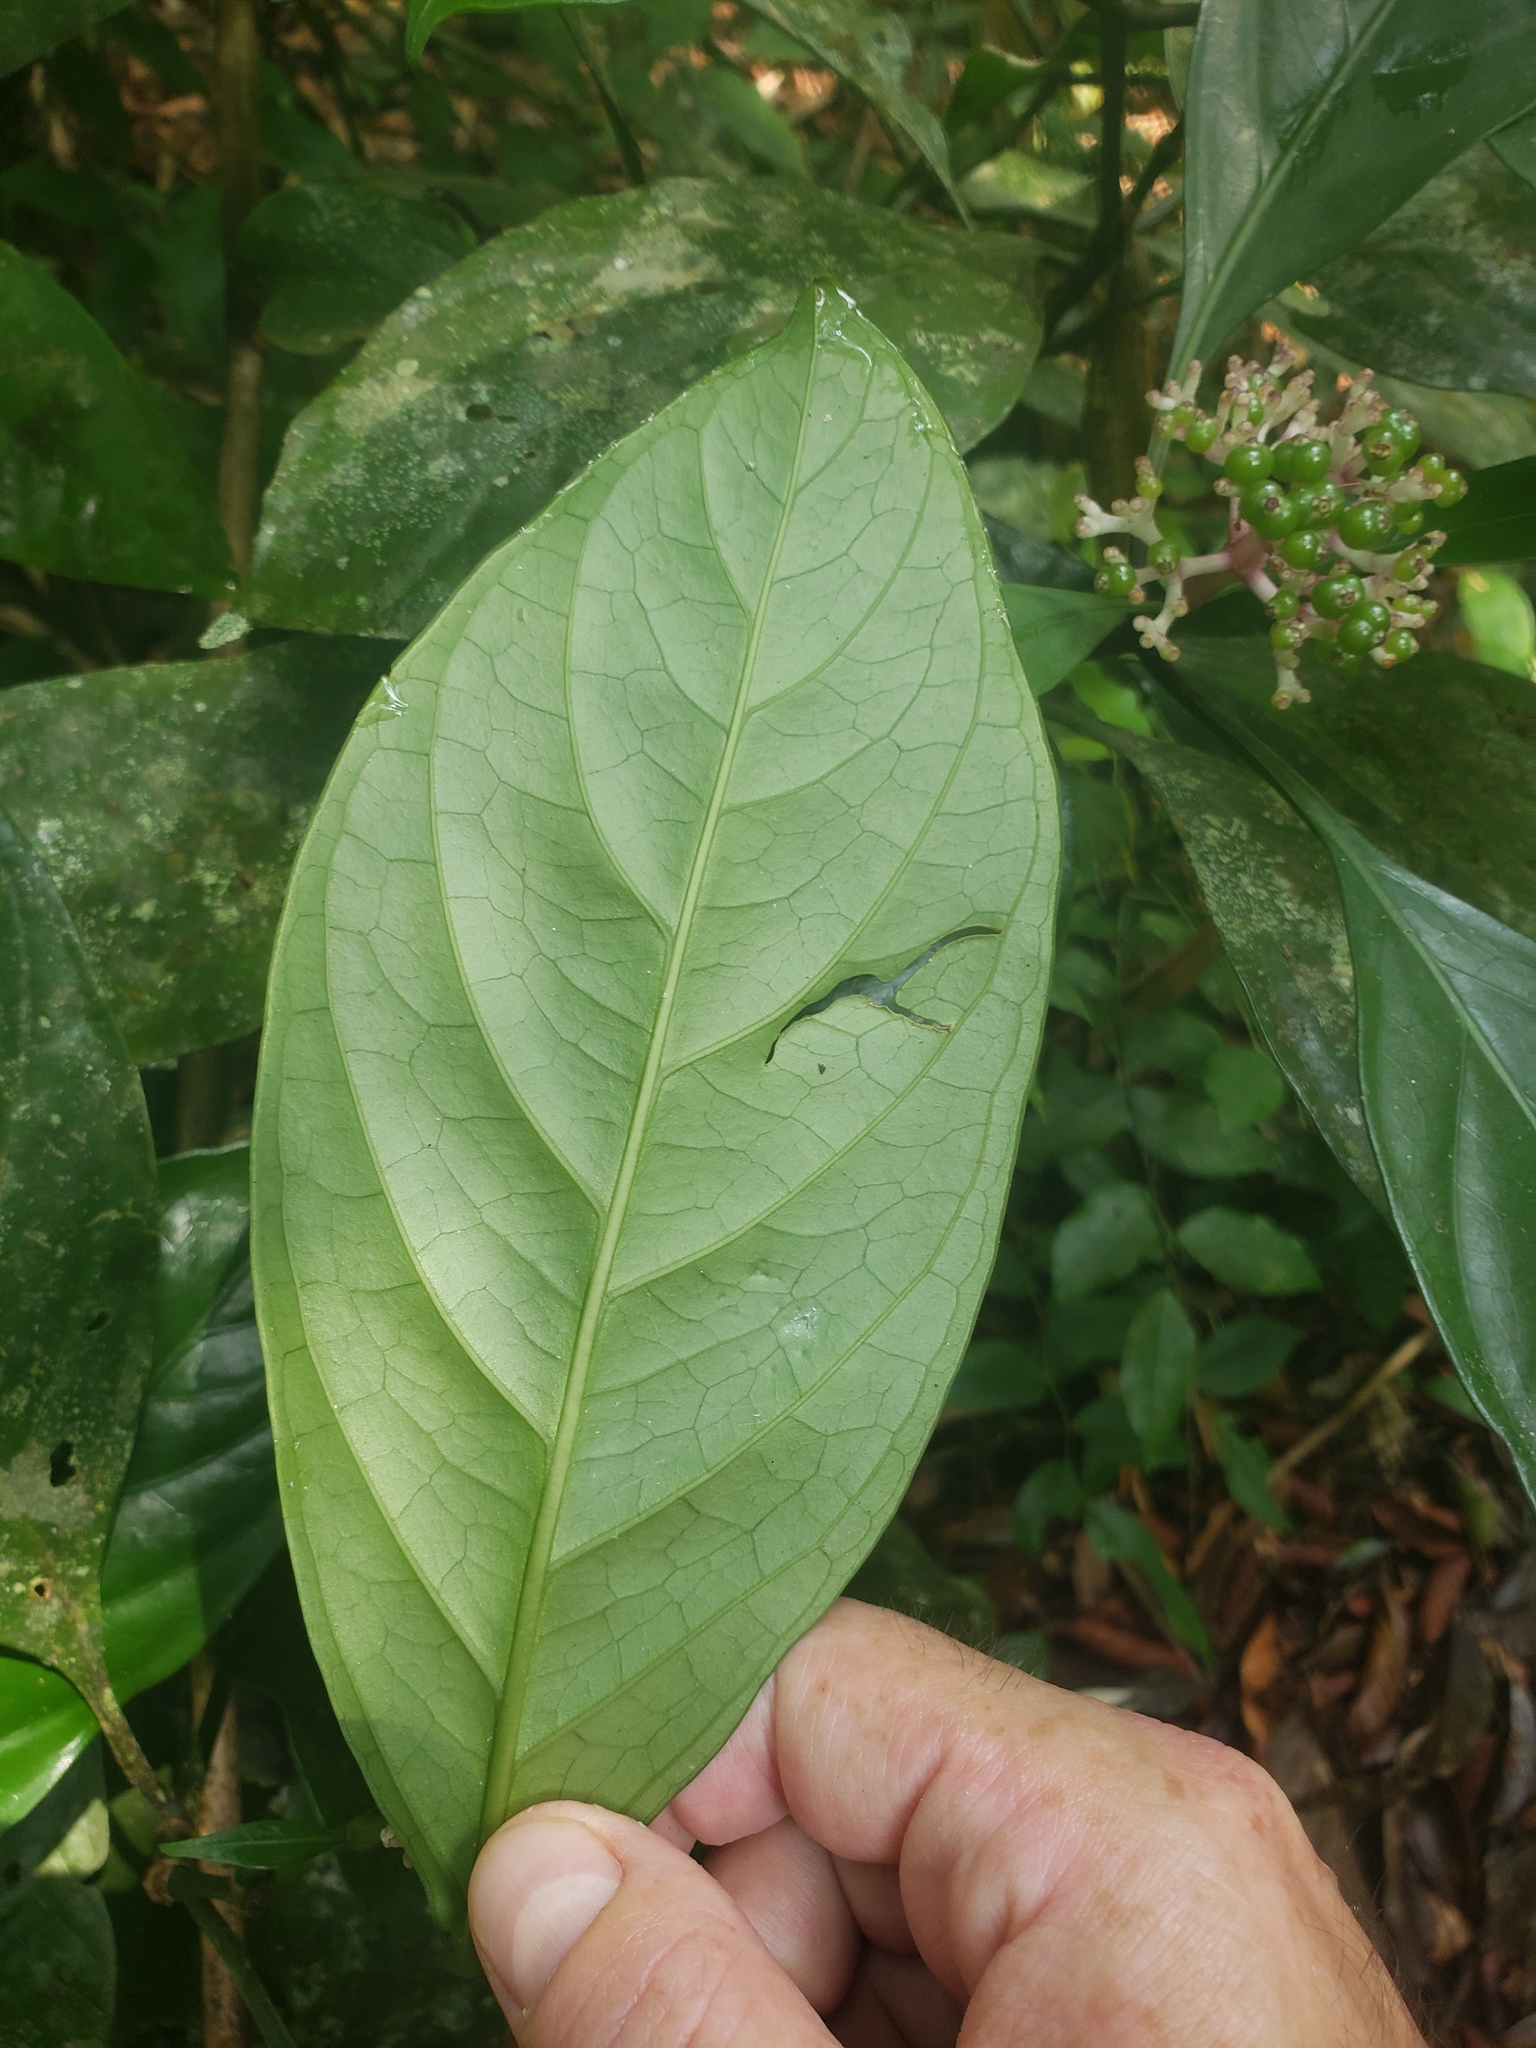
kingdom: Plantae
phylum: Tracheophyta
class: Magnoliopsida
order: Gentianales
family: Rubiaceae
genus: Chassalia
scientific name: Chassalia curviflora
